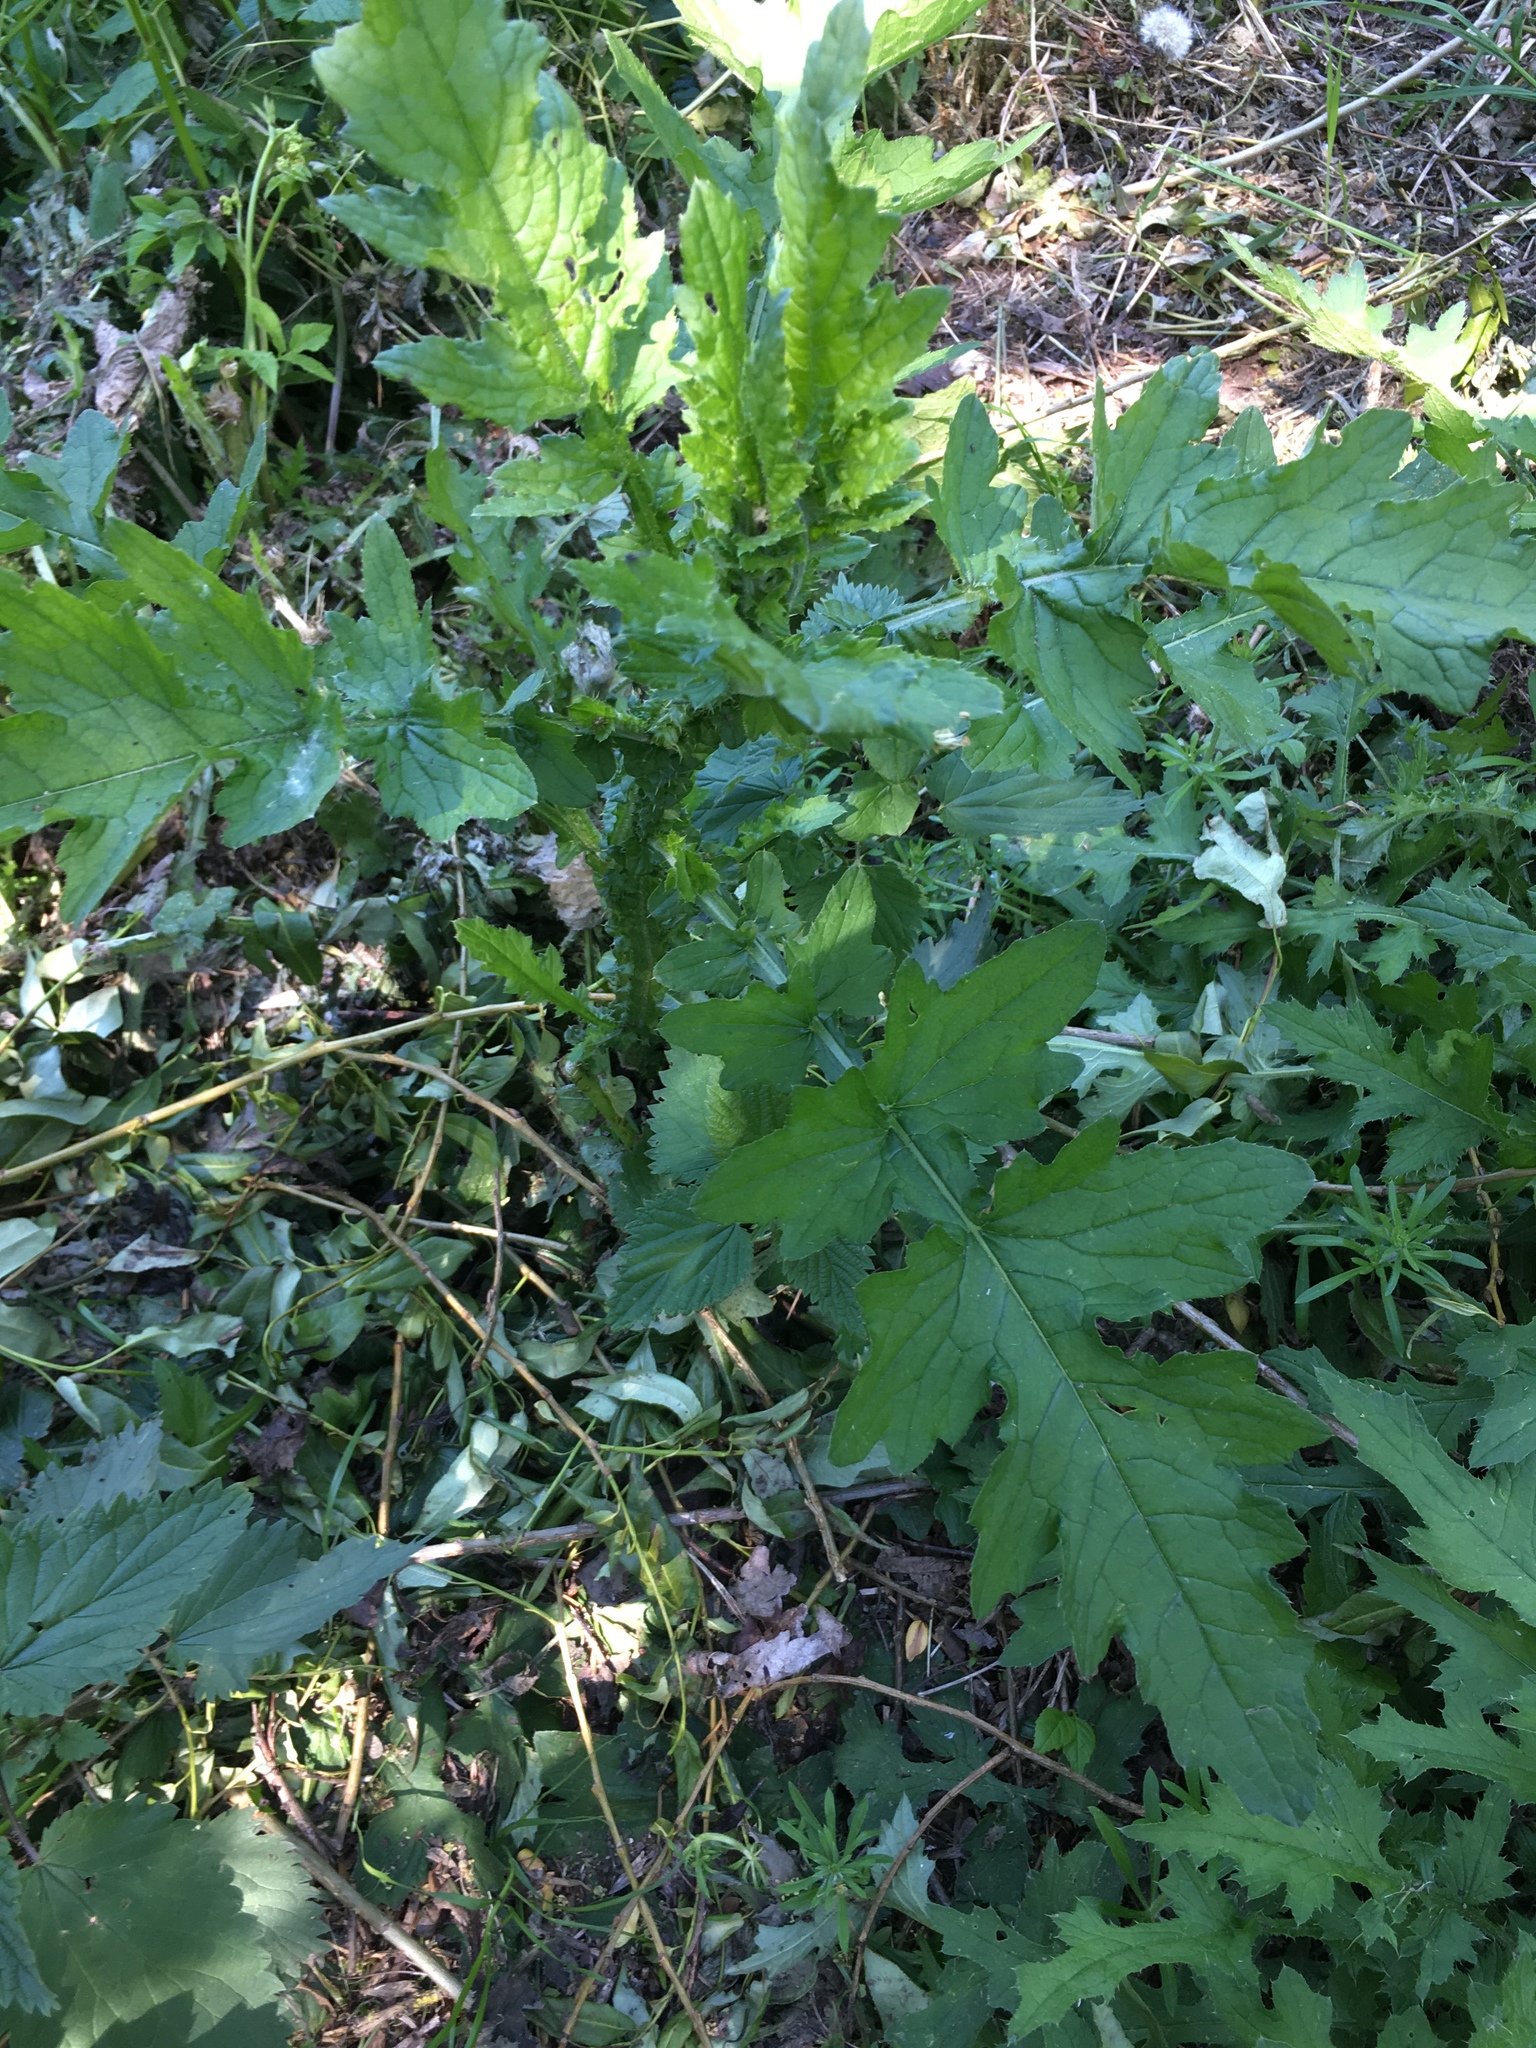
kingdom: Plantae
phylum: Tracheophyta
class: Magnoliopsida
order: Asterales
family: Asteraceae
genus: Carduus
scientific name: Carduus crispus
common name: Welted thistle
